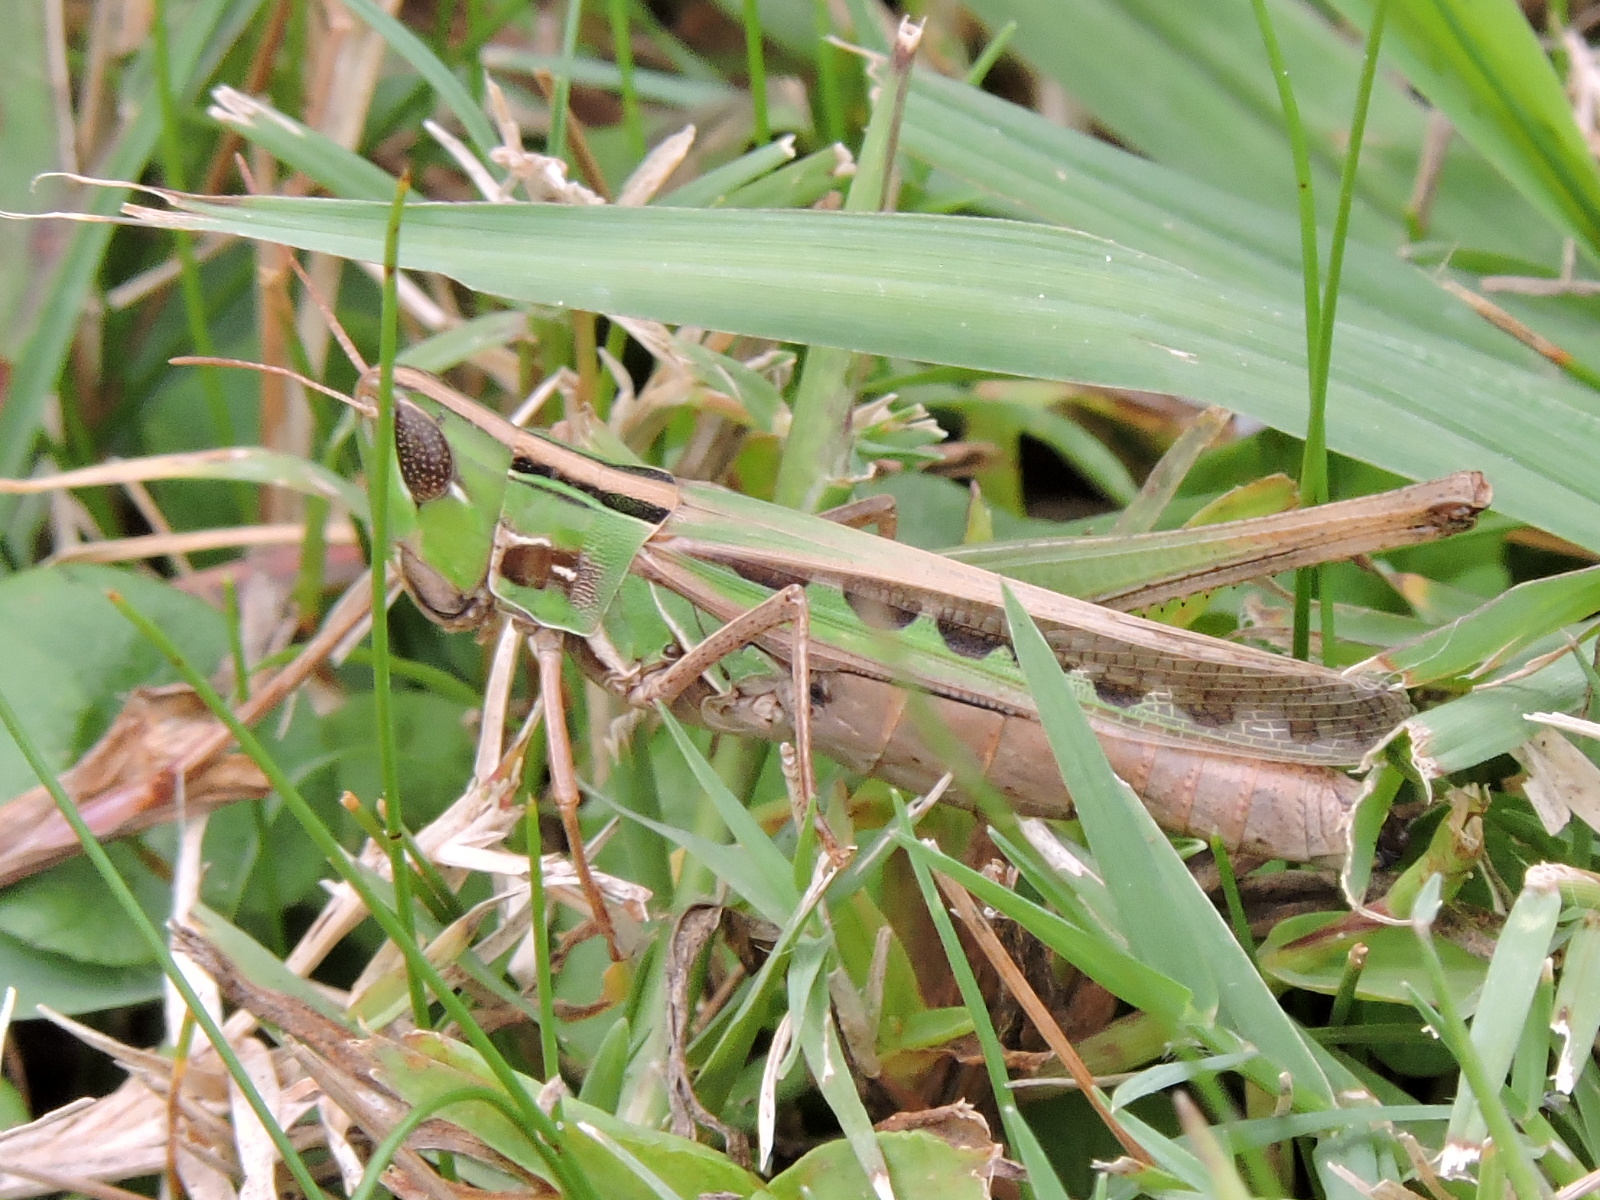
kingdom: Animalia
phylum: Arthropoda
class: Insecta
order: Orthoptera
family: Acrididae
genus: Syrbula
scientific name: Syrbula admirabilis
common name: Handsome grasshopper
